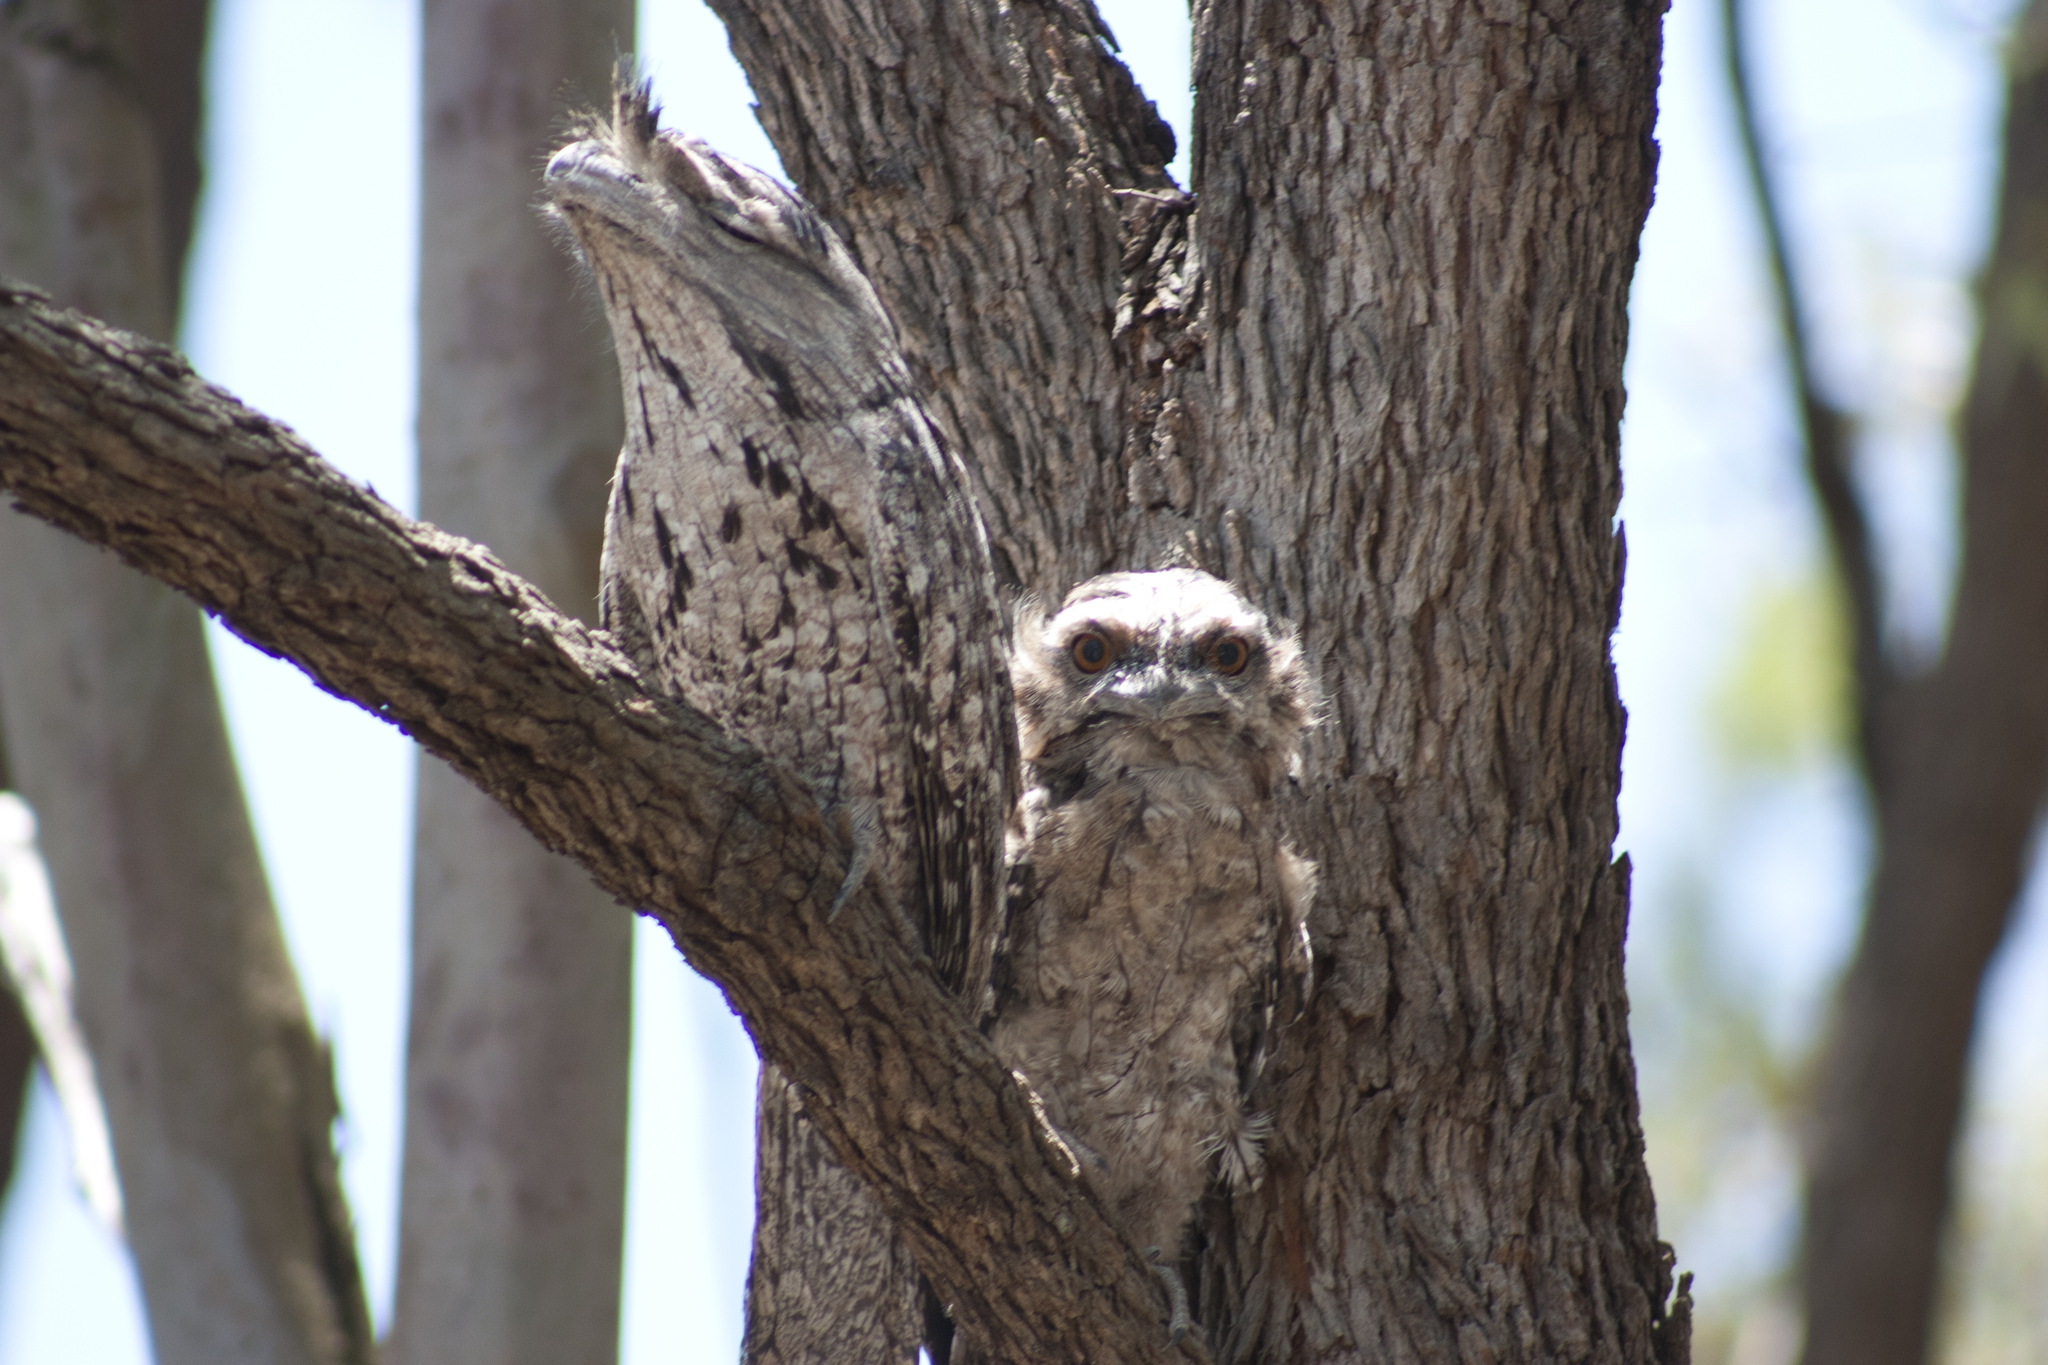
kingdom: Animalia
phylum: Chordata
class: Aves
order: Caprimulgiformes
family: Podargidae
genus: Podargus
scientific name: Podargus strigoides
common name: Tawny frogmouth
